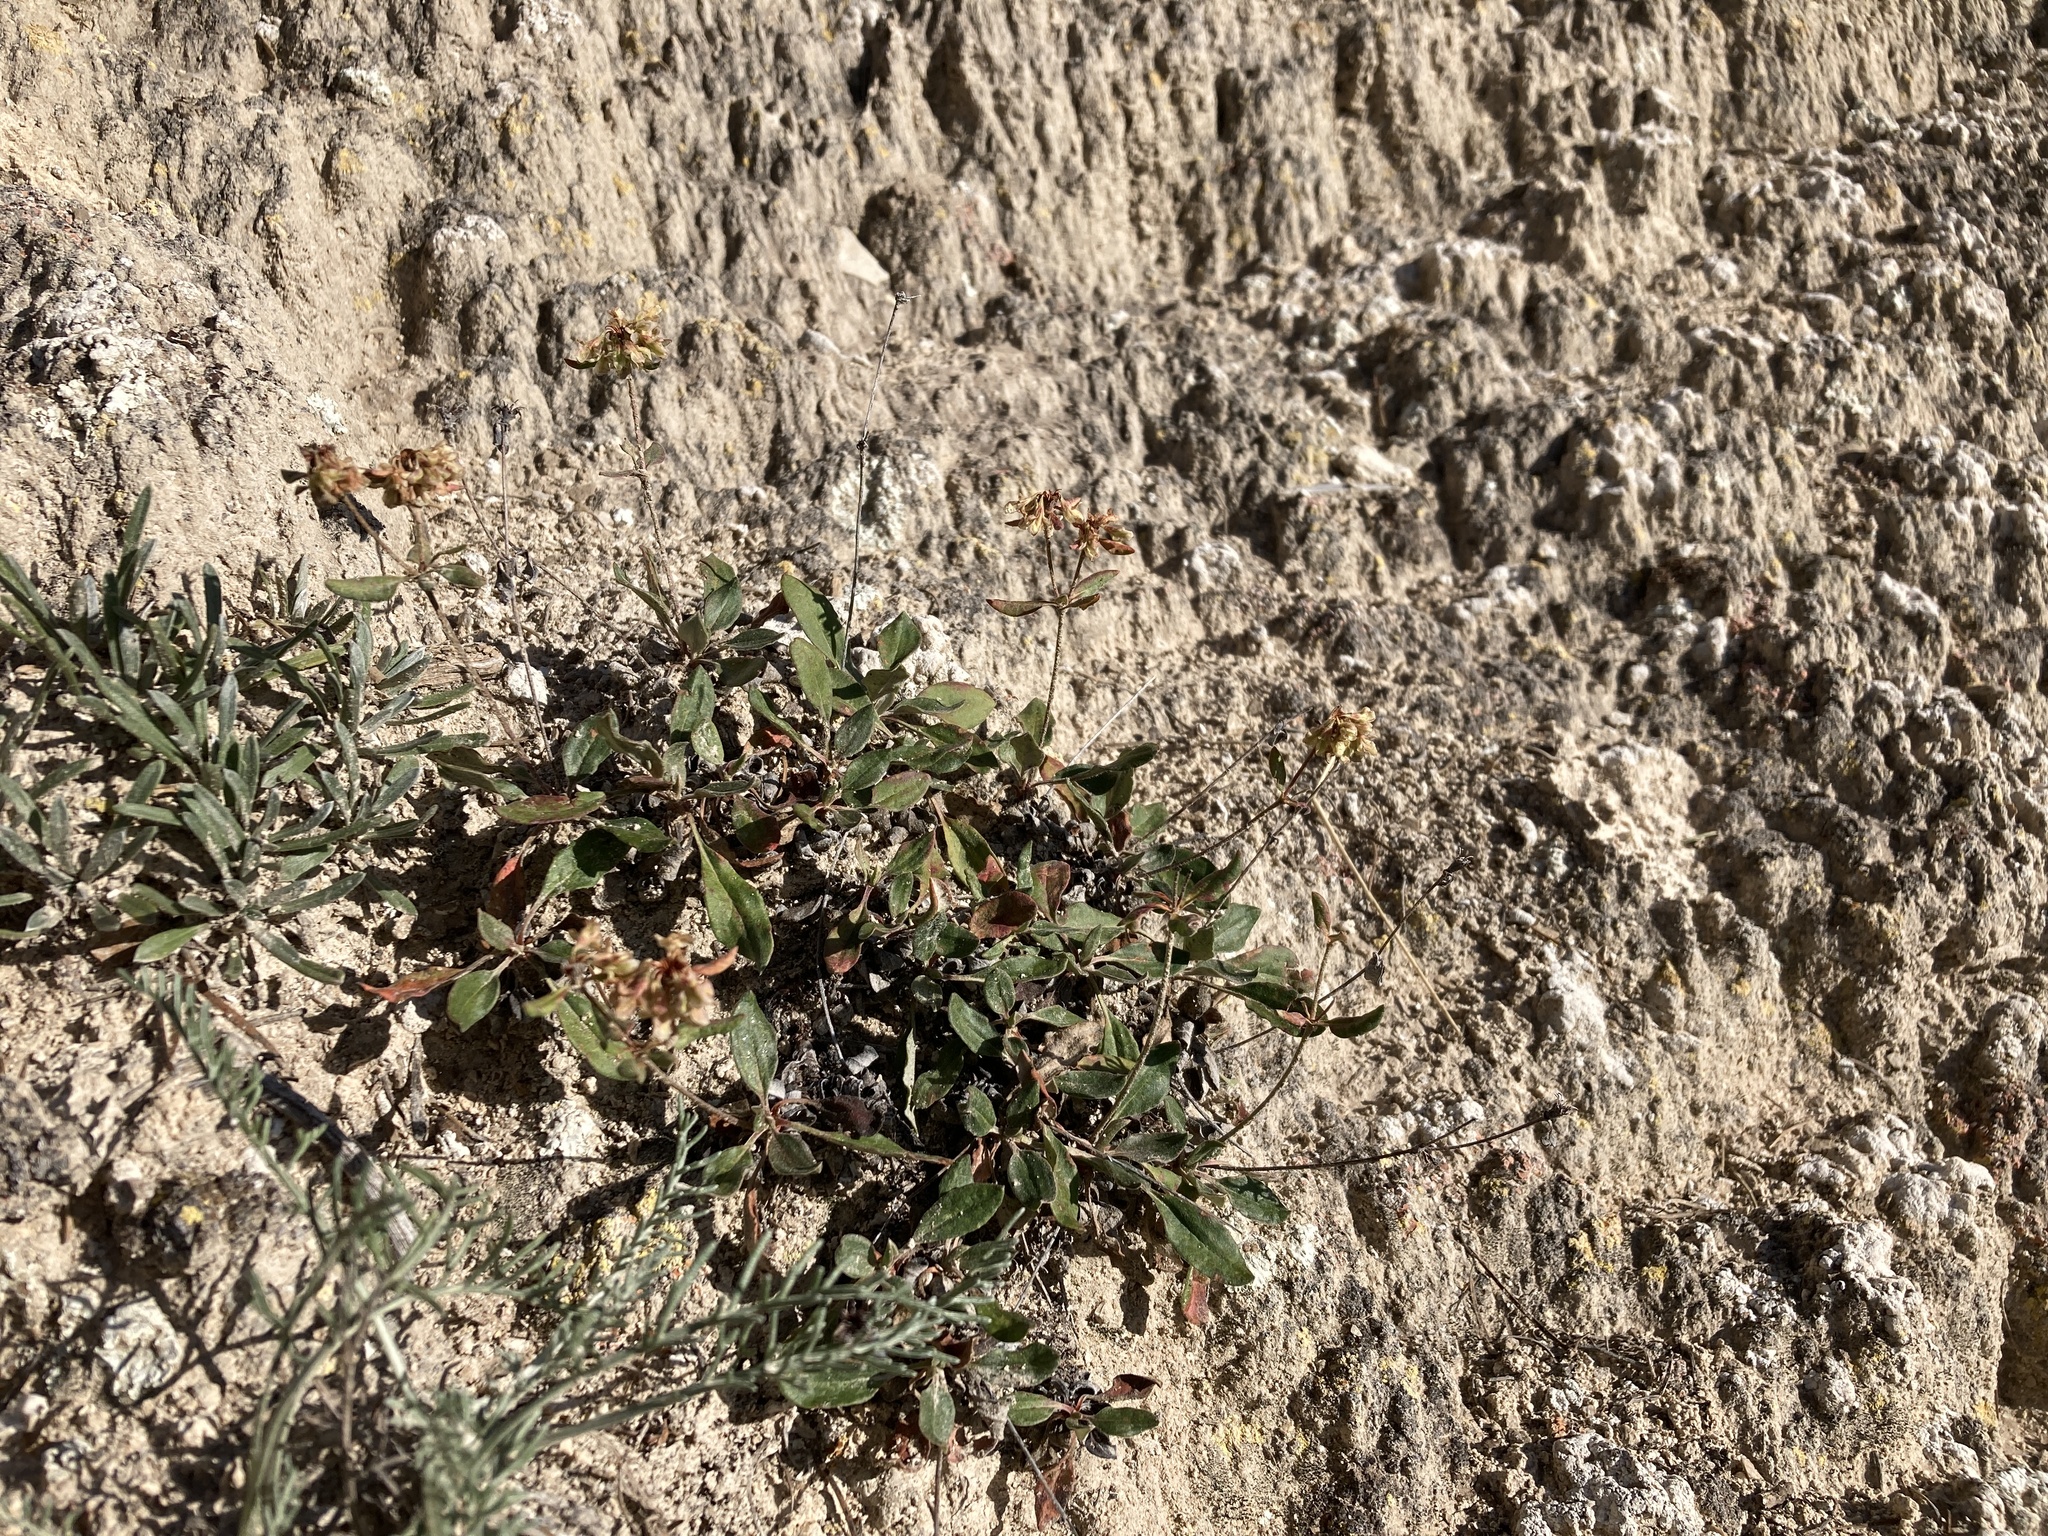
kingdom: Plantae
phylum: Tracheophyta
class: Magnoliopsida
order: Caryophyllales
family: Polygonaceae
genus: Eriogonum
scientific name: Eriogonum jamesii
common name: Antelope-sage
